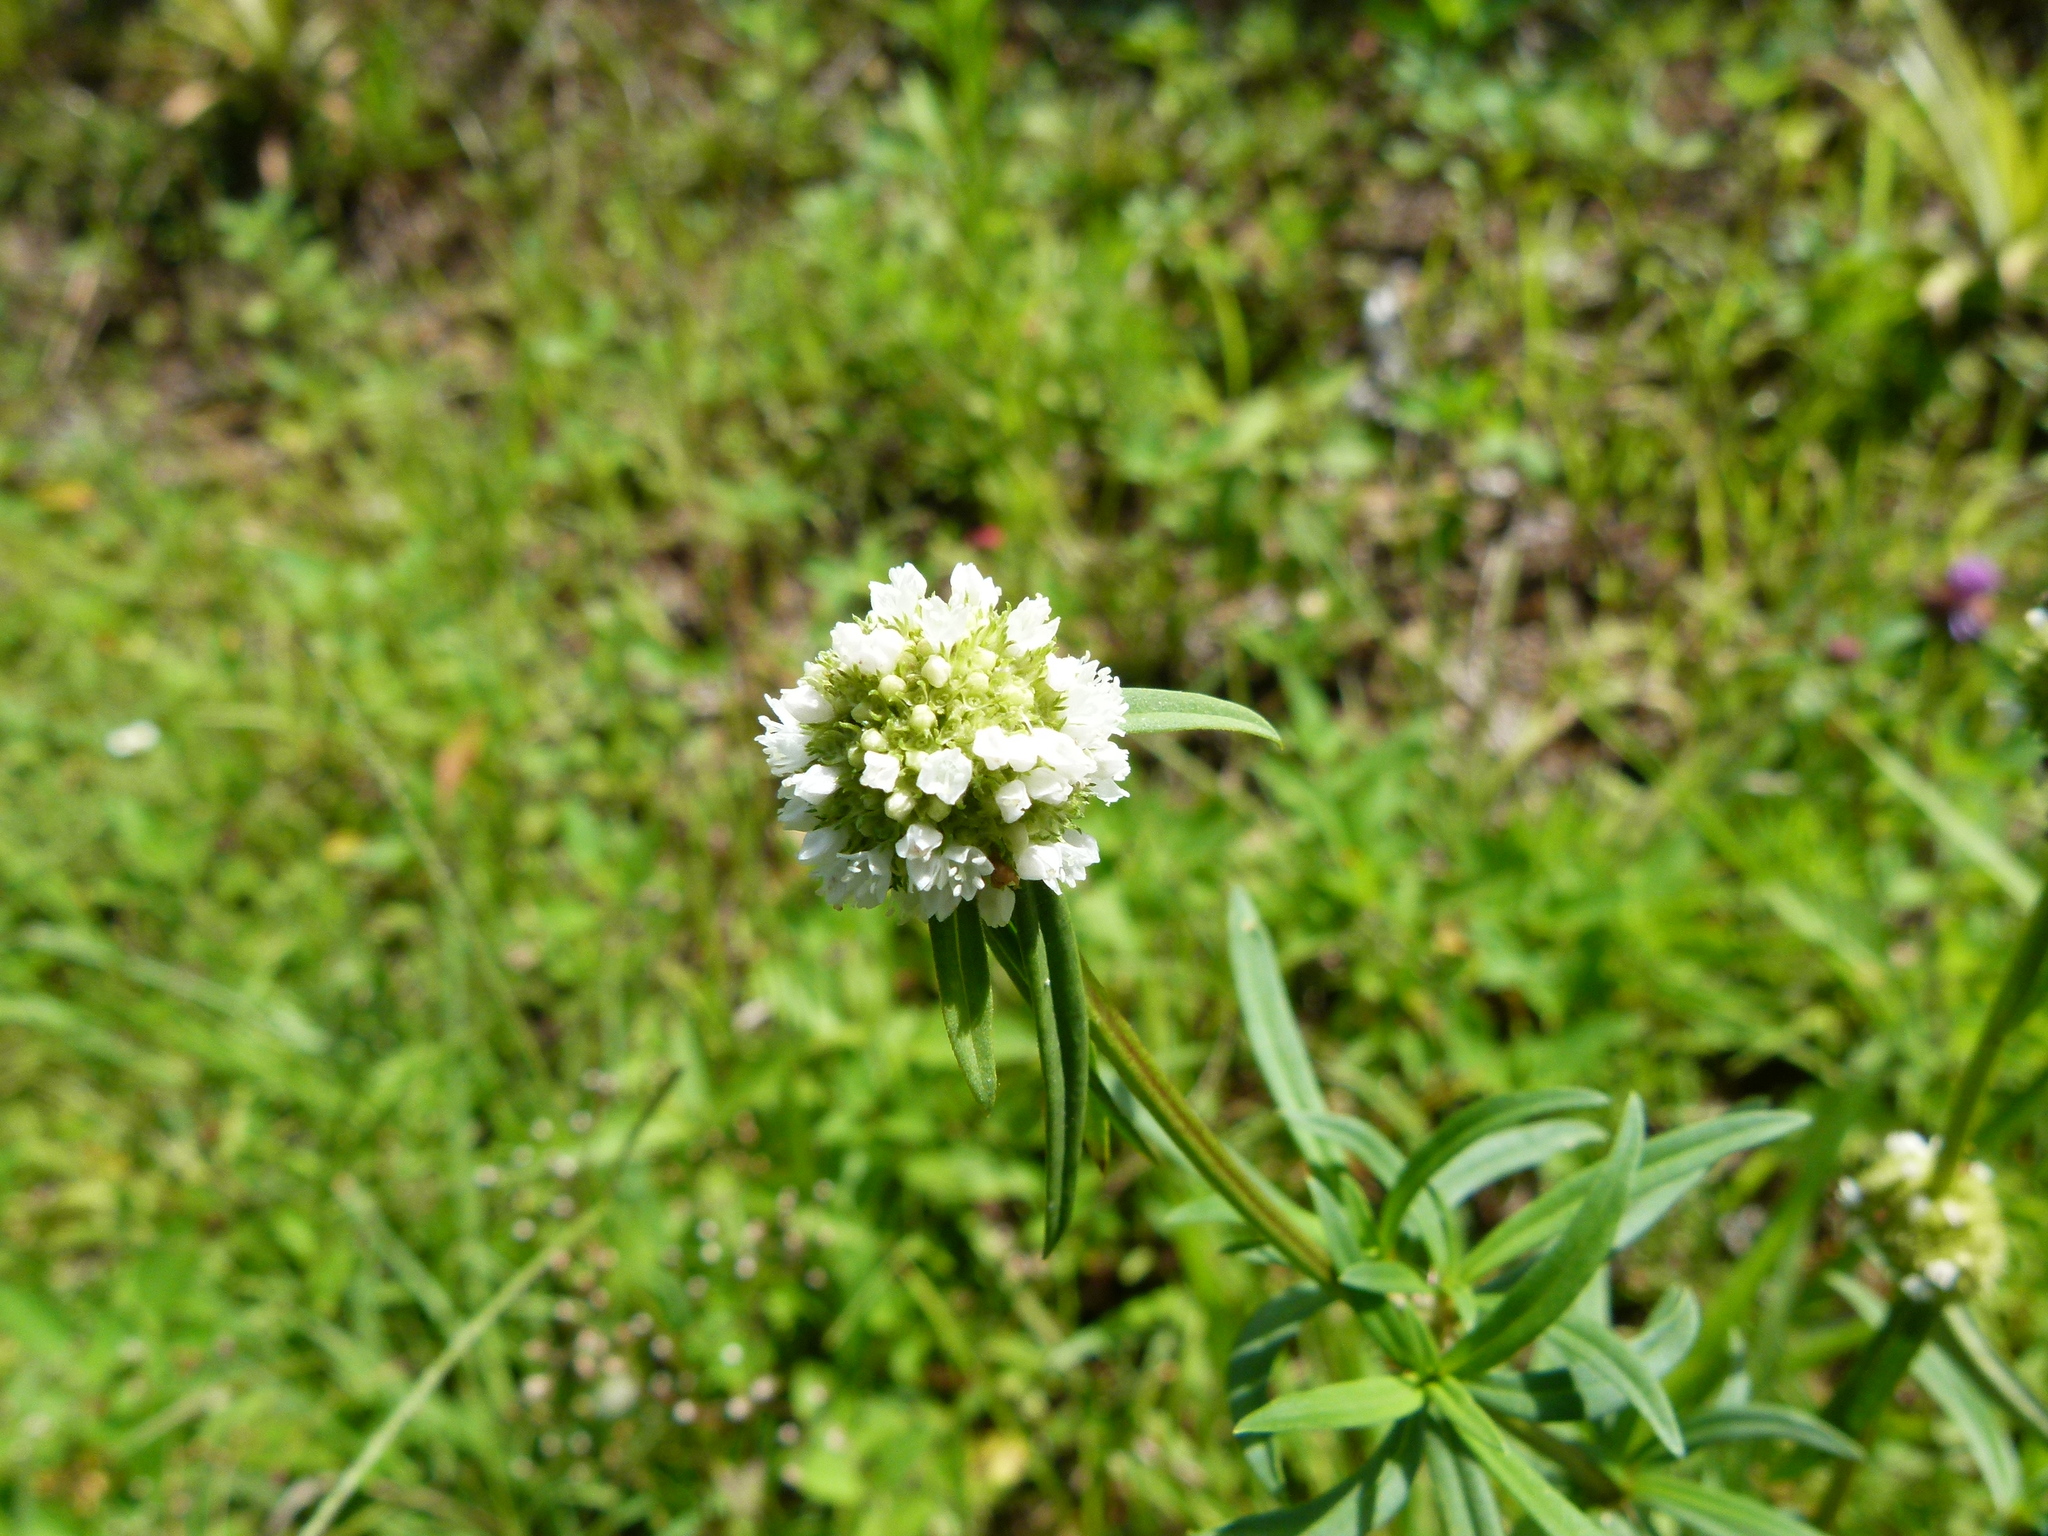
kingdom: Plantae
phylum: Tracheophyta
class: Magnoliopsida
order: Gentianales
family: Rubiaceae
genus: Spermacoce
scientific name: Spermacoce verticillata
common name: Shrubby false buttonweed
